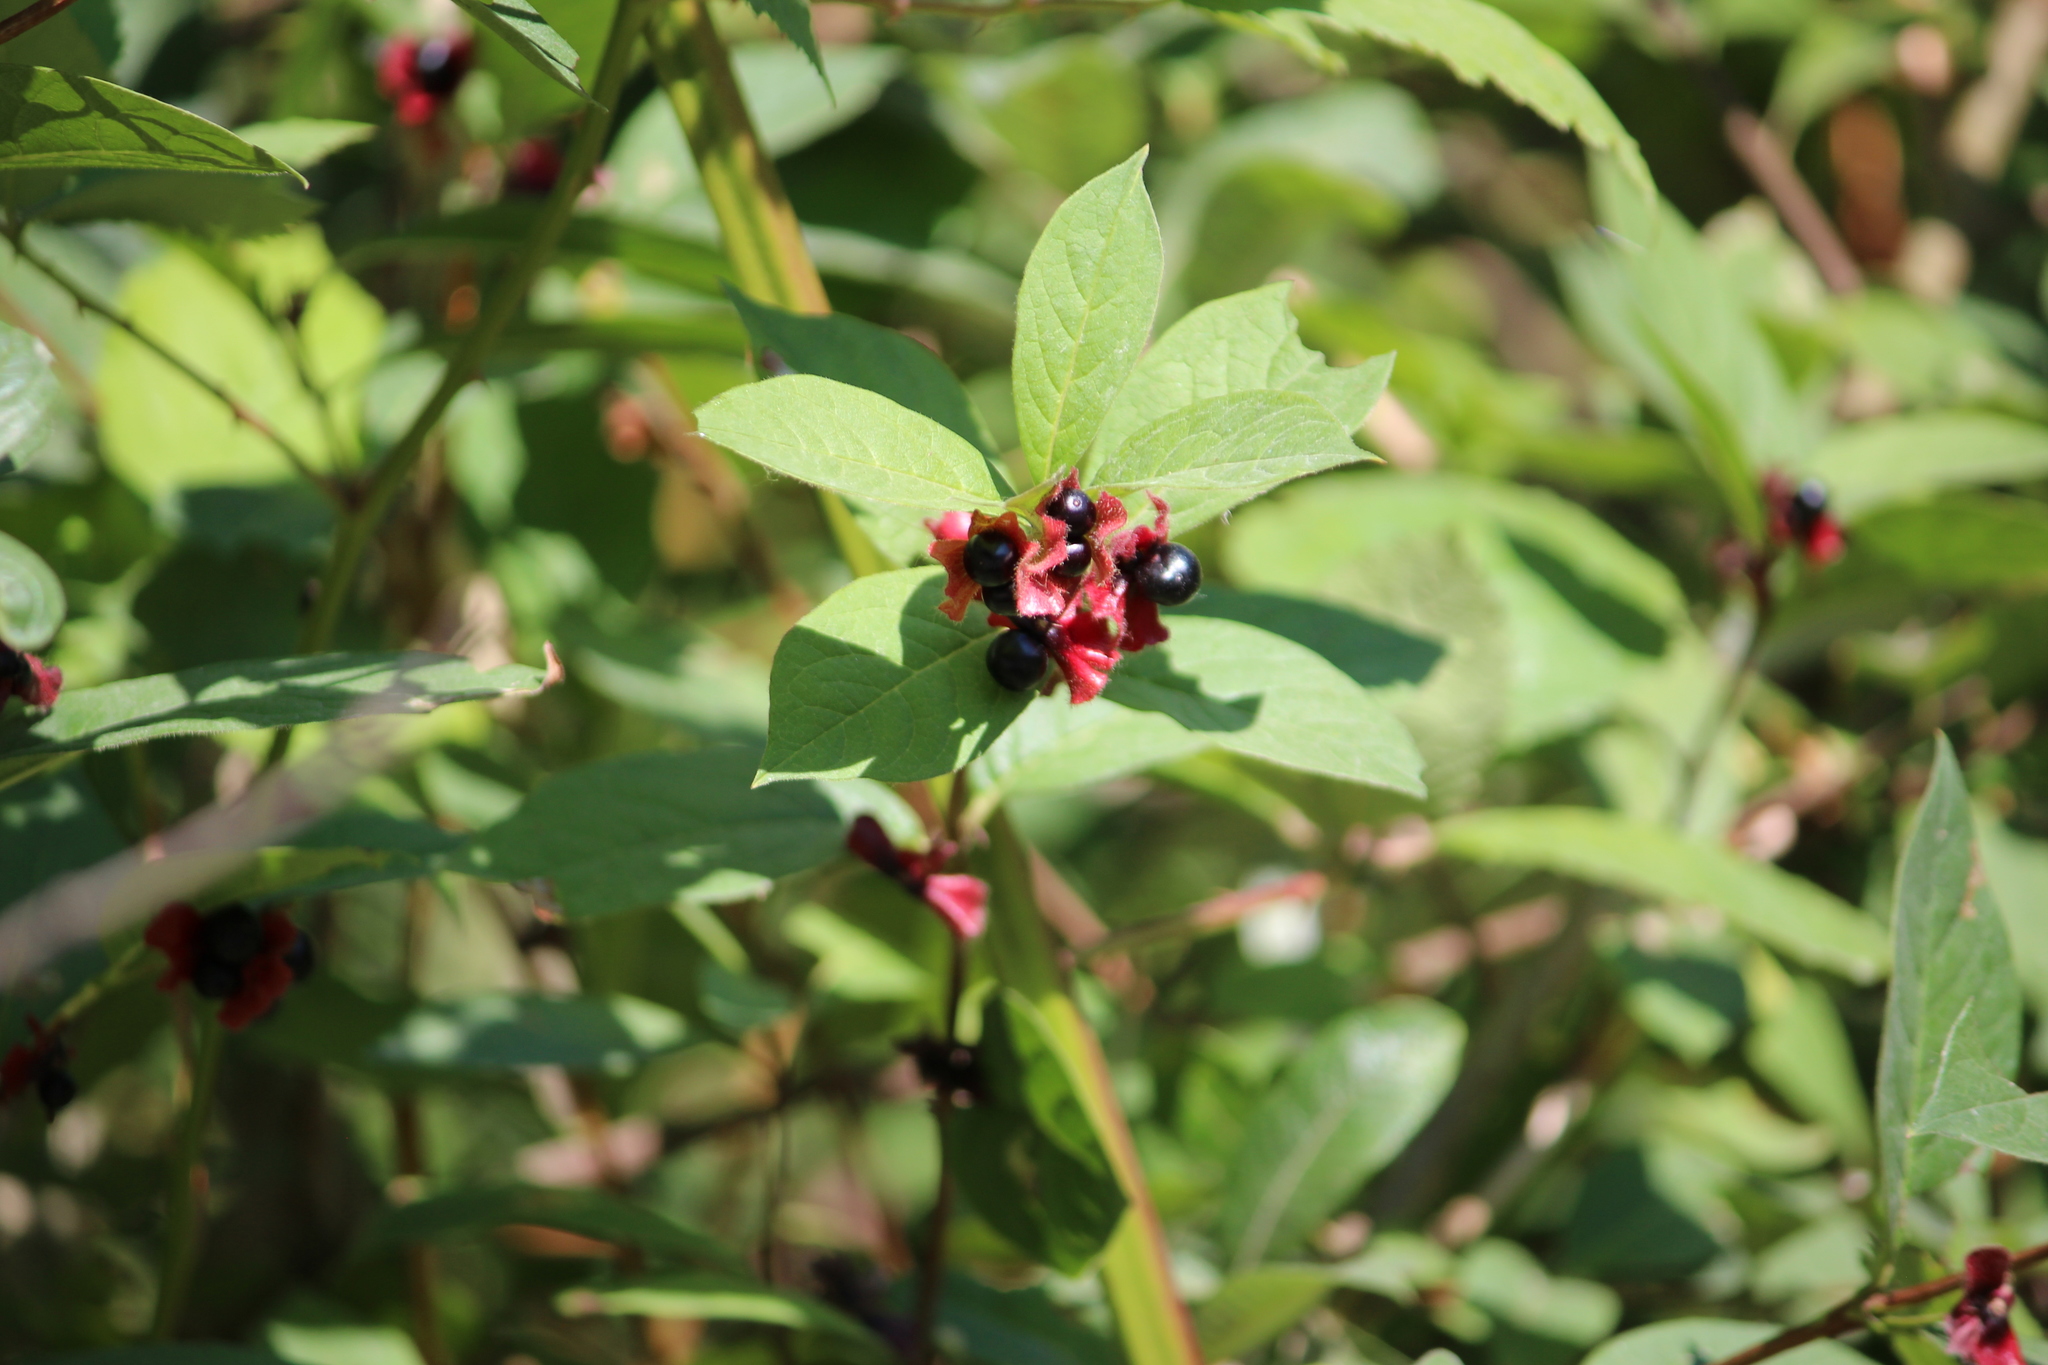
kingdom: Plantae
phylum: Tracheophyta
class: Magnoliopsida
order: Dipsacales
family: Caprifoliaceae
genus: Lonicera
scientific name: Lonicera involucrata
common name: Californian honeysuckle
